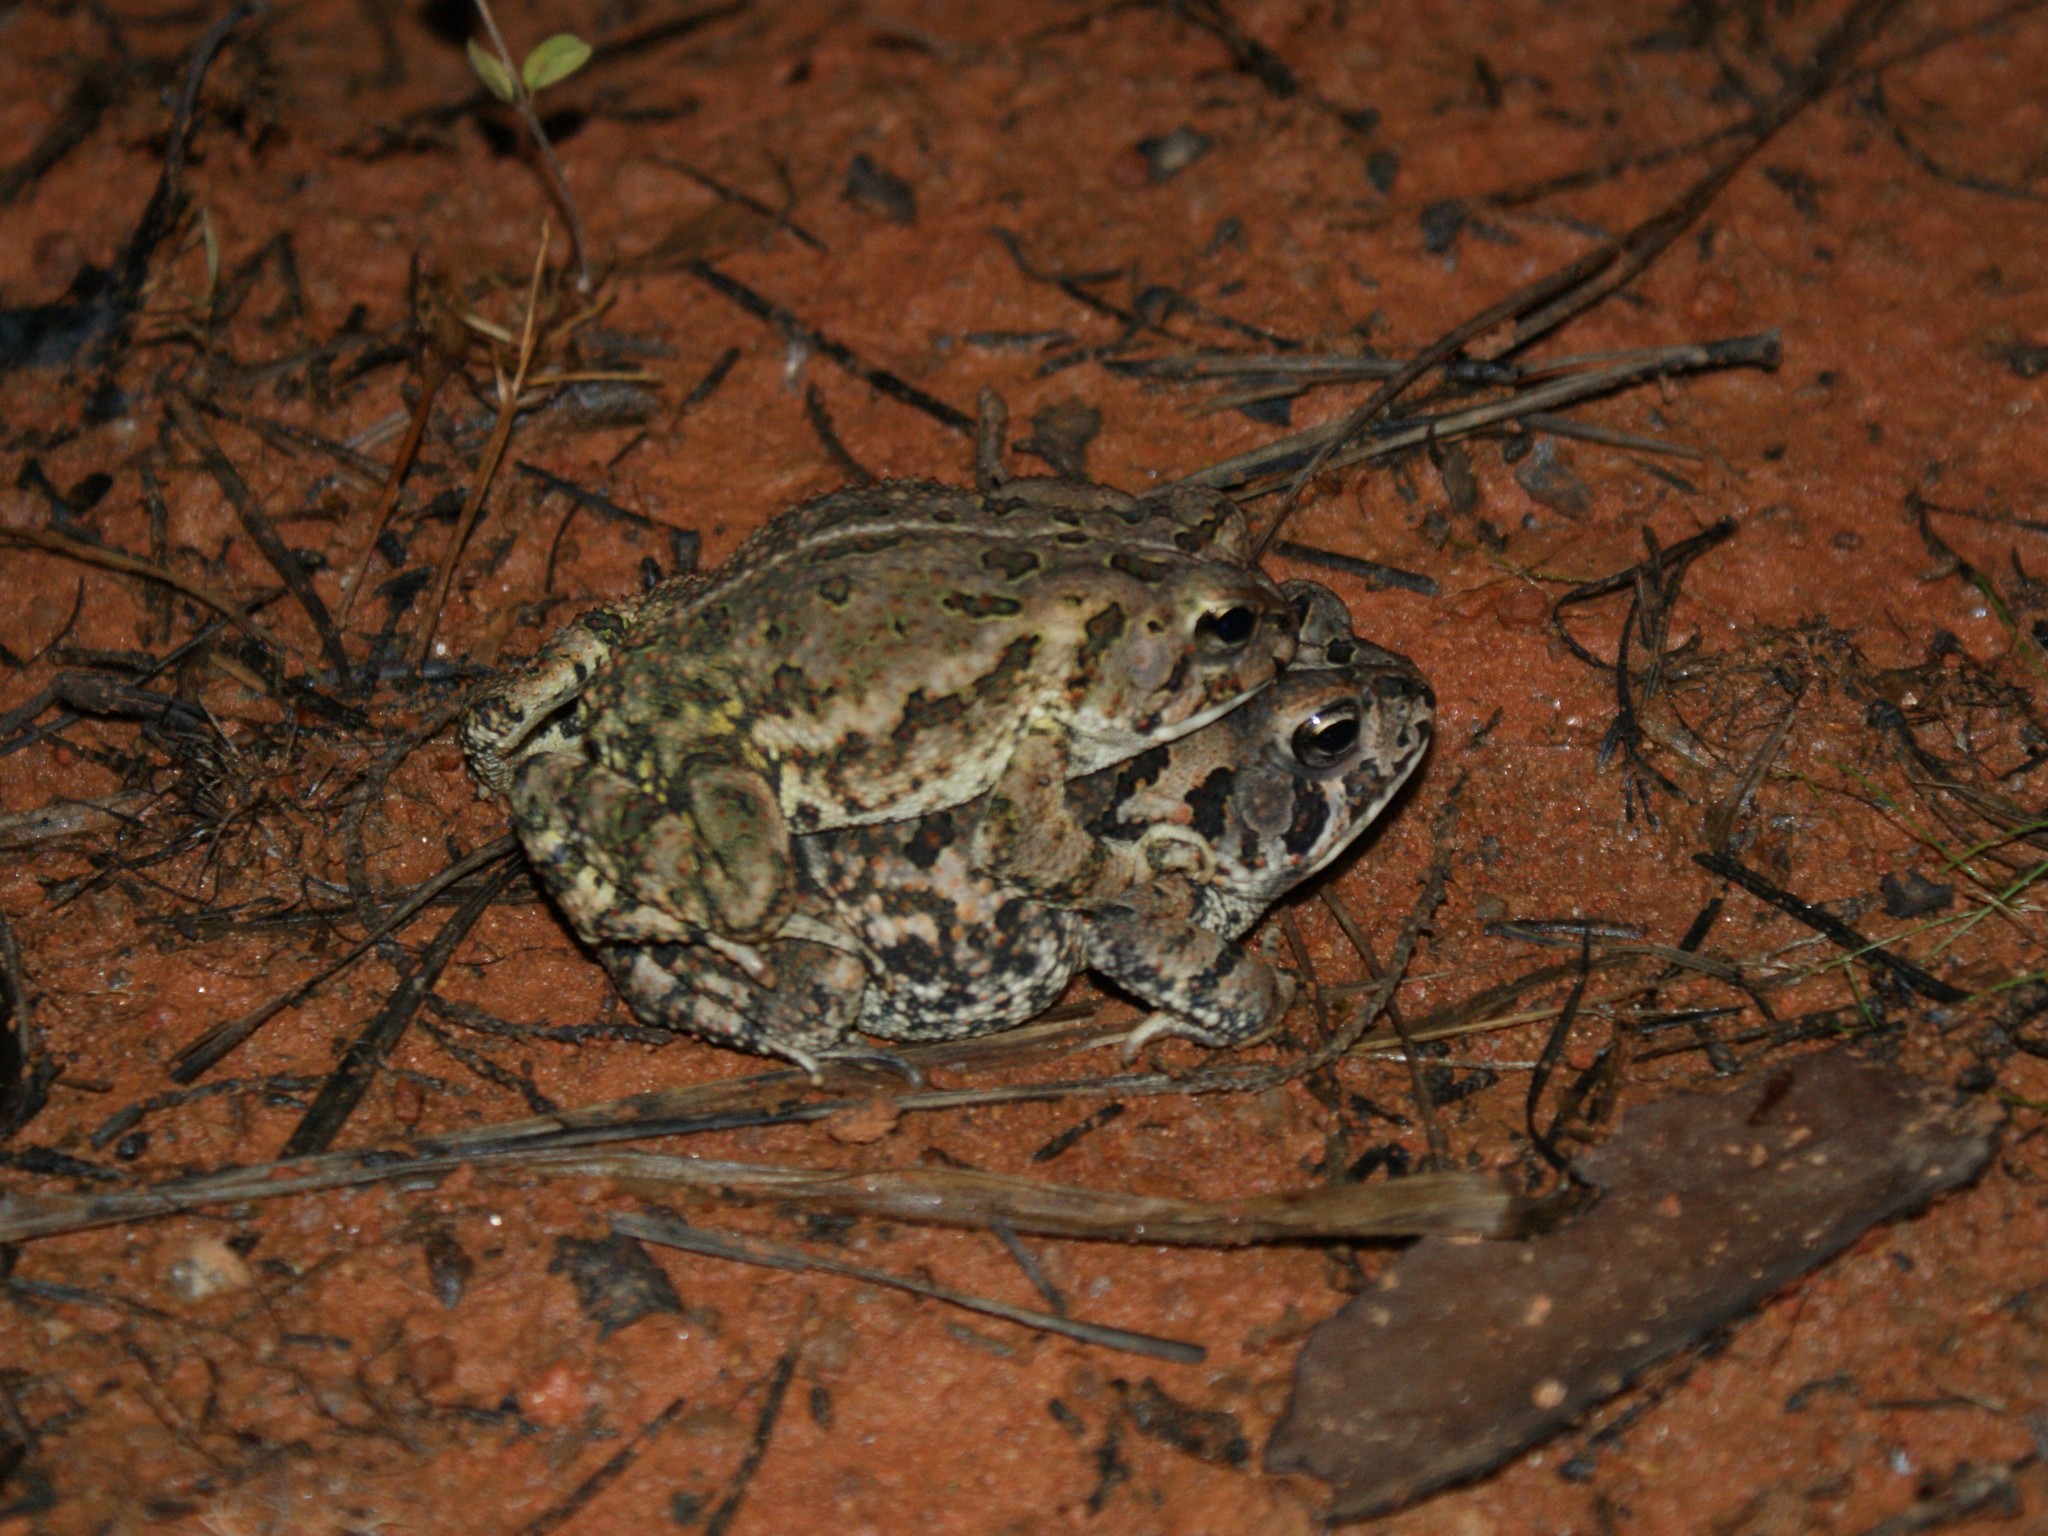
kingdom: Animalia
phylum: Chordata
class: Amphibia
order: Anura
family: Bufonidae
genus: Anaxyrus
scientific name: Anaxyrus fowleri
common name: Fowler's toad
